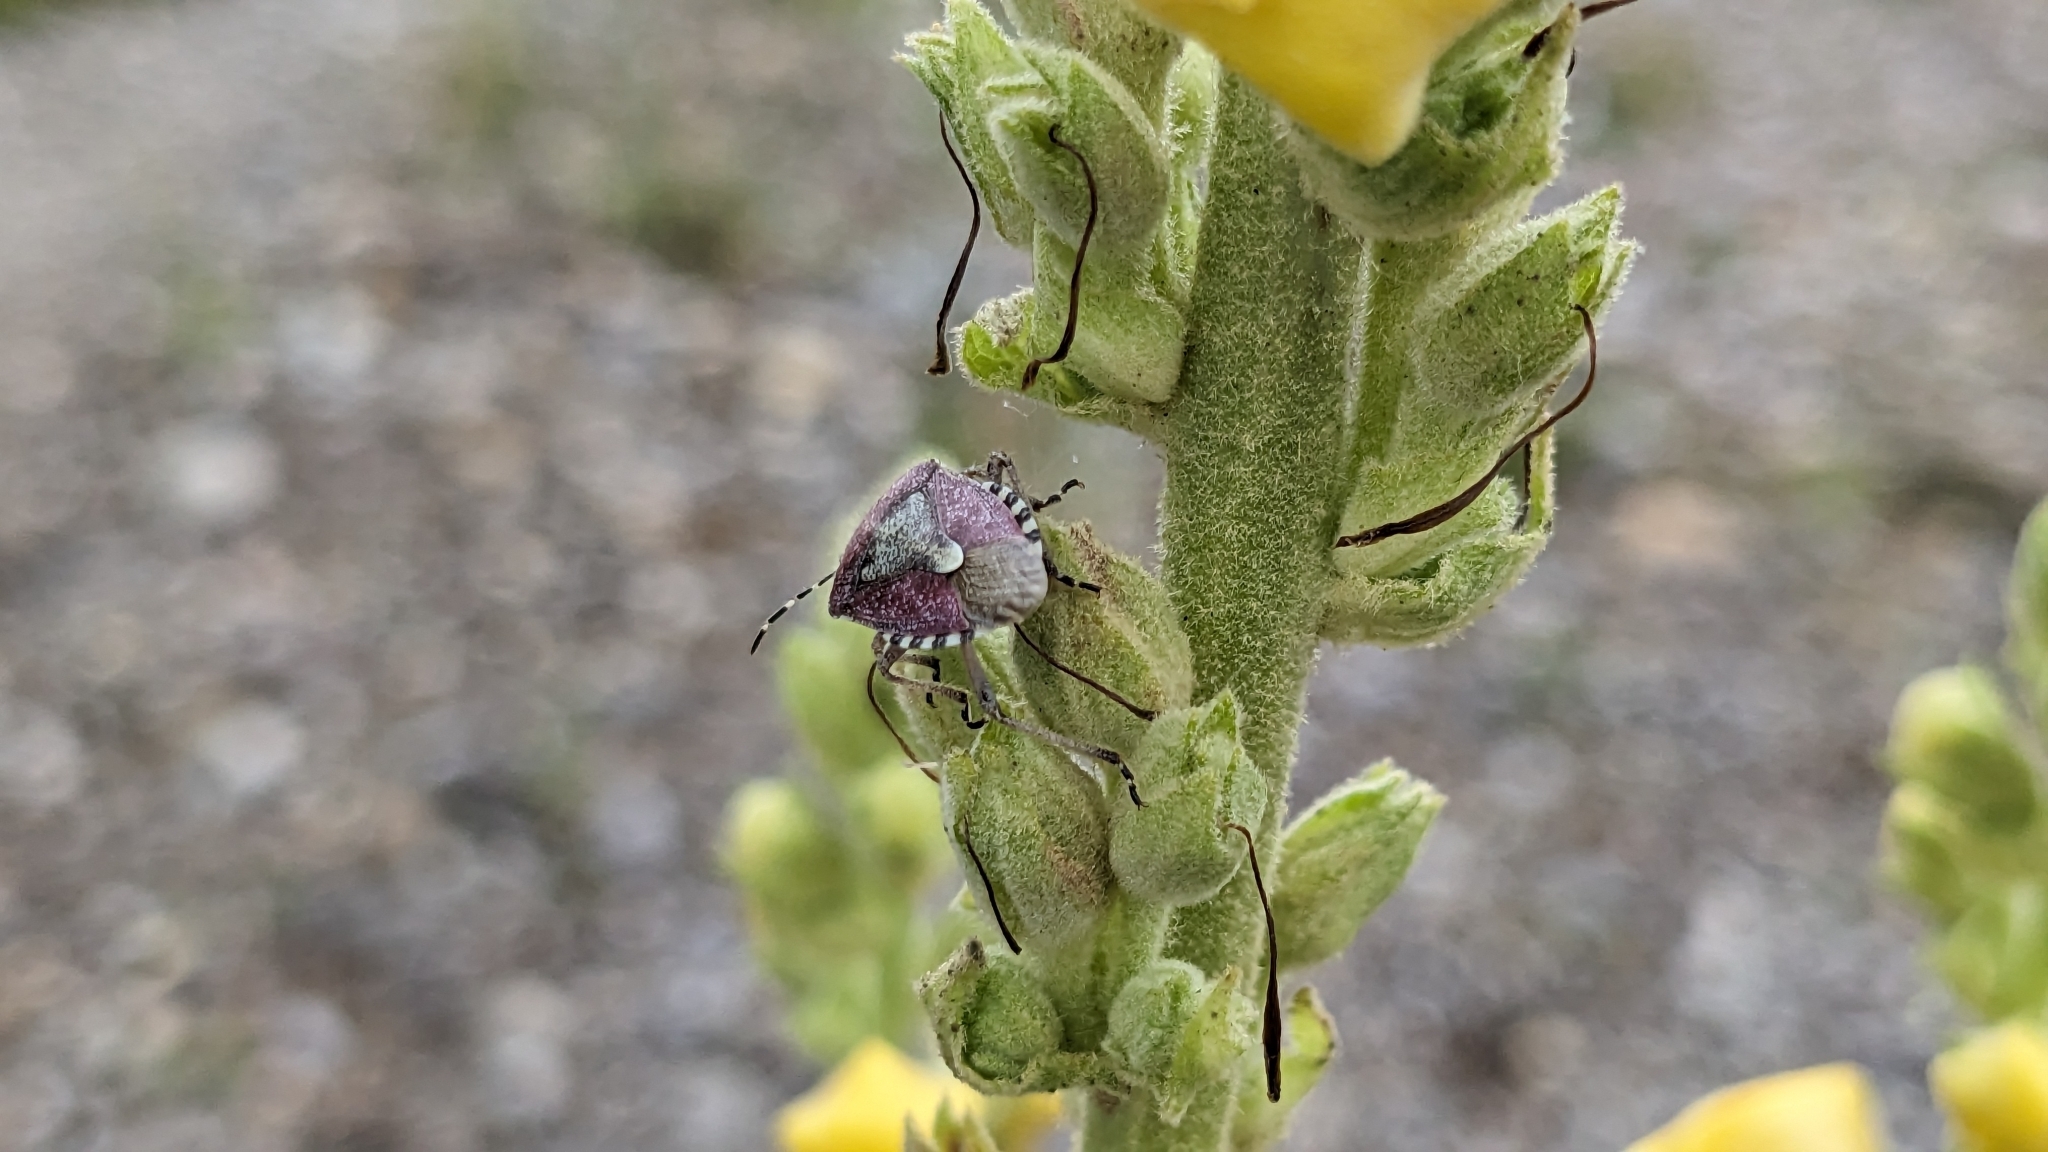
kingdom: Animalia
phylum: Arthropoda
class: Insecta
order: Hemiptera
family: Pentatomidae
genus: Dolycoris
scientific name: Dolycoris baccarum
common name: Sloe bug
